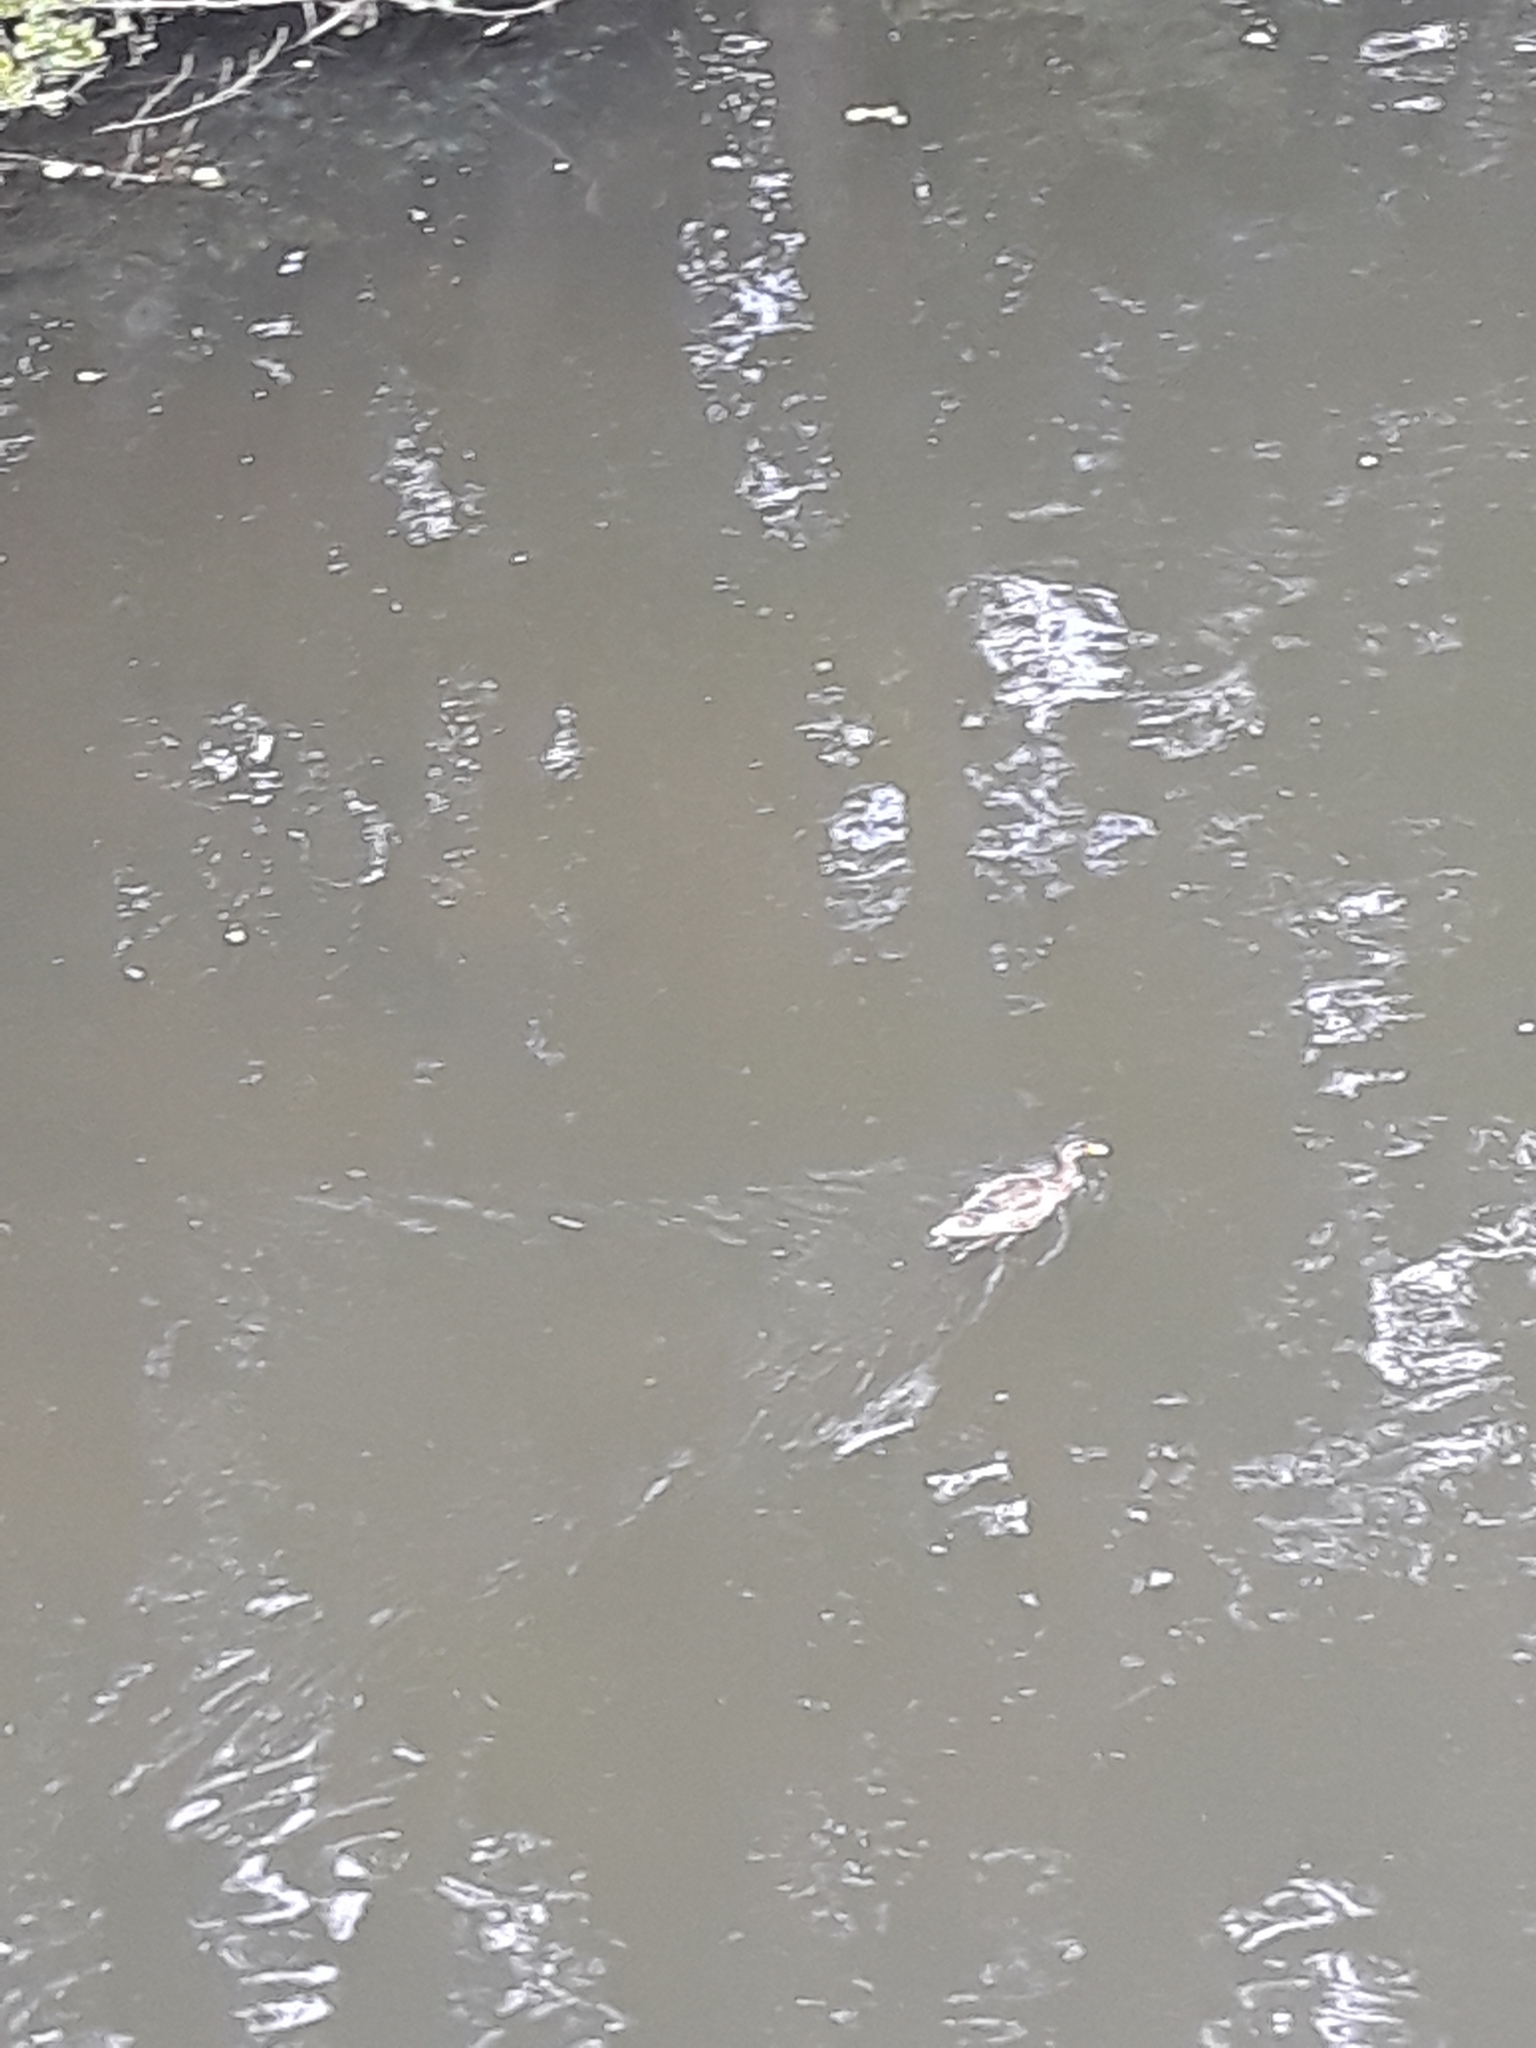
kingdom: Animalia
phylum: Chordata
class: Aves
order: Anseriformes
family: Anatidae
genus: Anas
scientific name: Anas platyrhynchos
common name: Mallard
